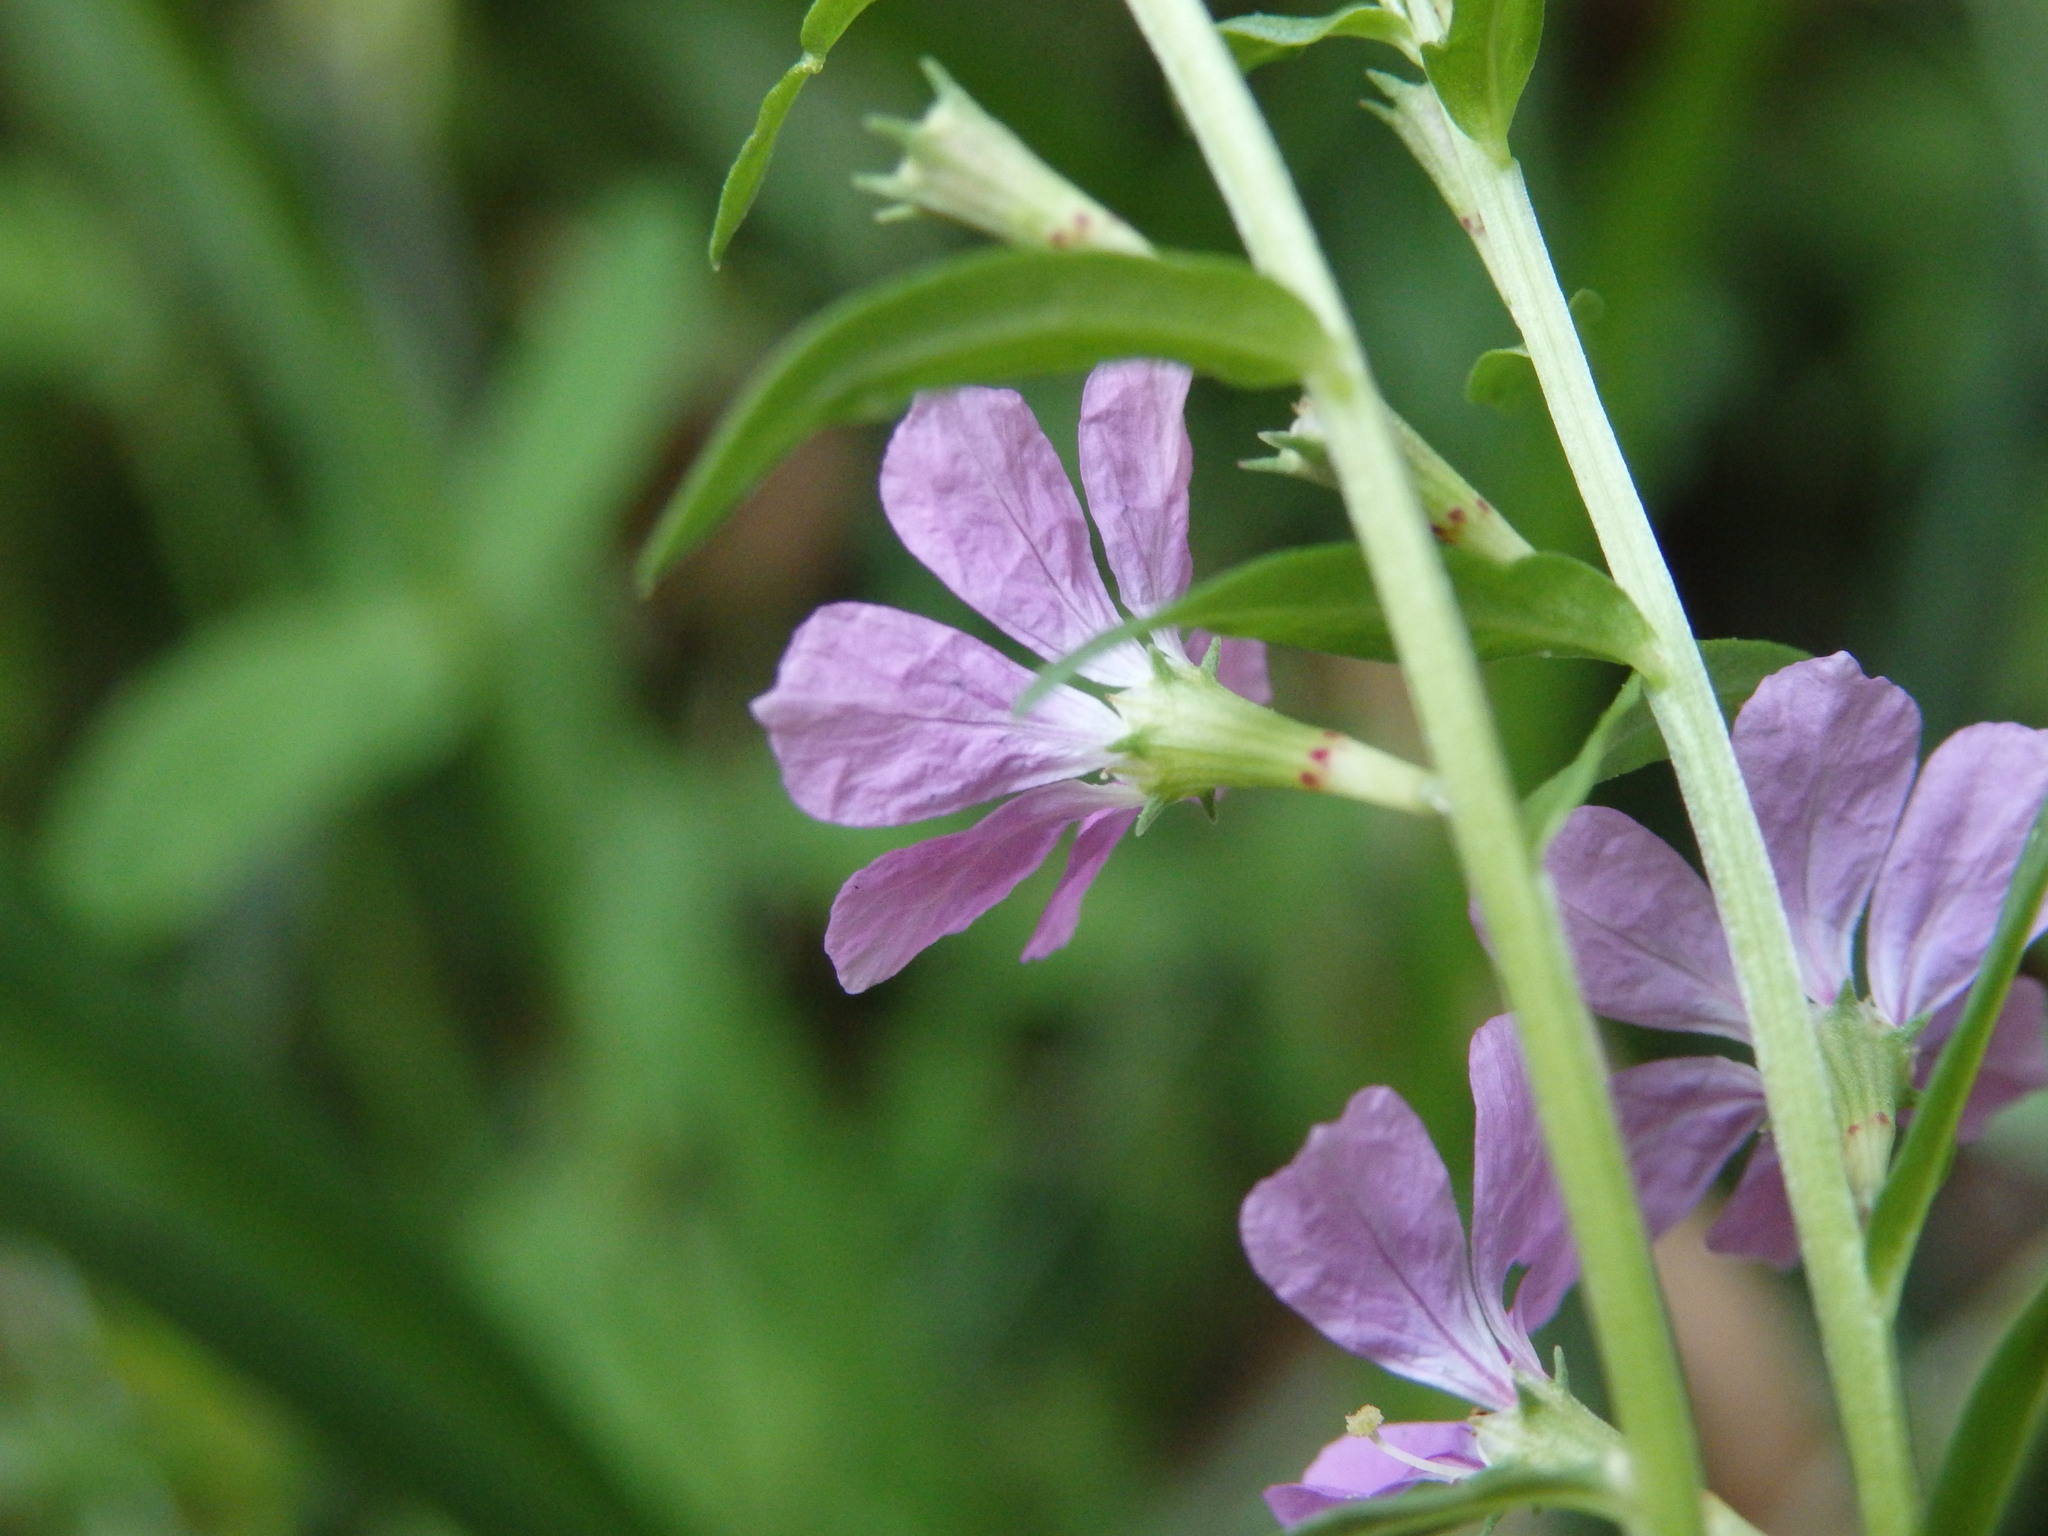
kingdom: Plantae
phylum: Tracheophyta
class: Magnoliopsida
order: Myrtales
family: Lythraceae
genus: Lythrum
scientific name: Lythrum junceum
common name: False grass-poly
